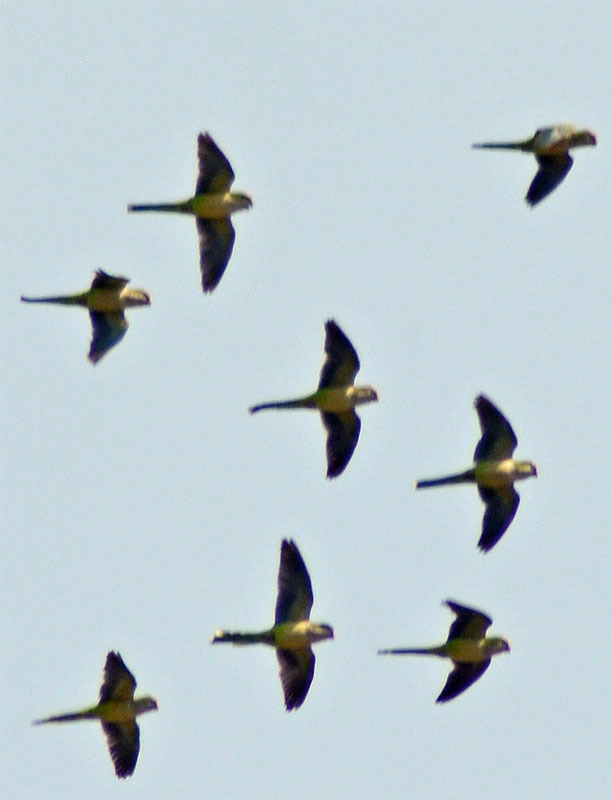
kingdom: Animalia
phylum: Chordata
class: Aves
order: Psittaciformes
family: Psittacidae
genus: Myiopsitta
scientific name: Myiopsitta monachus
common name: Monk parakeet
